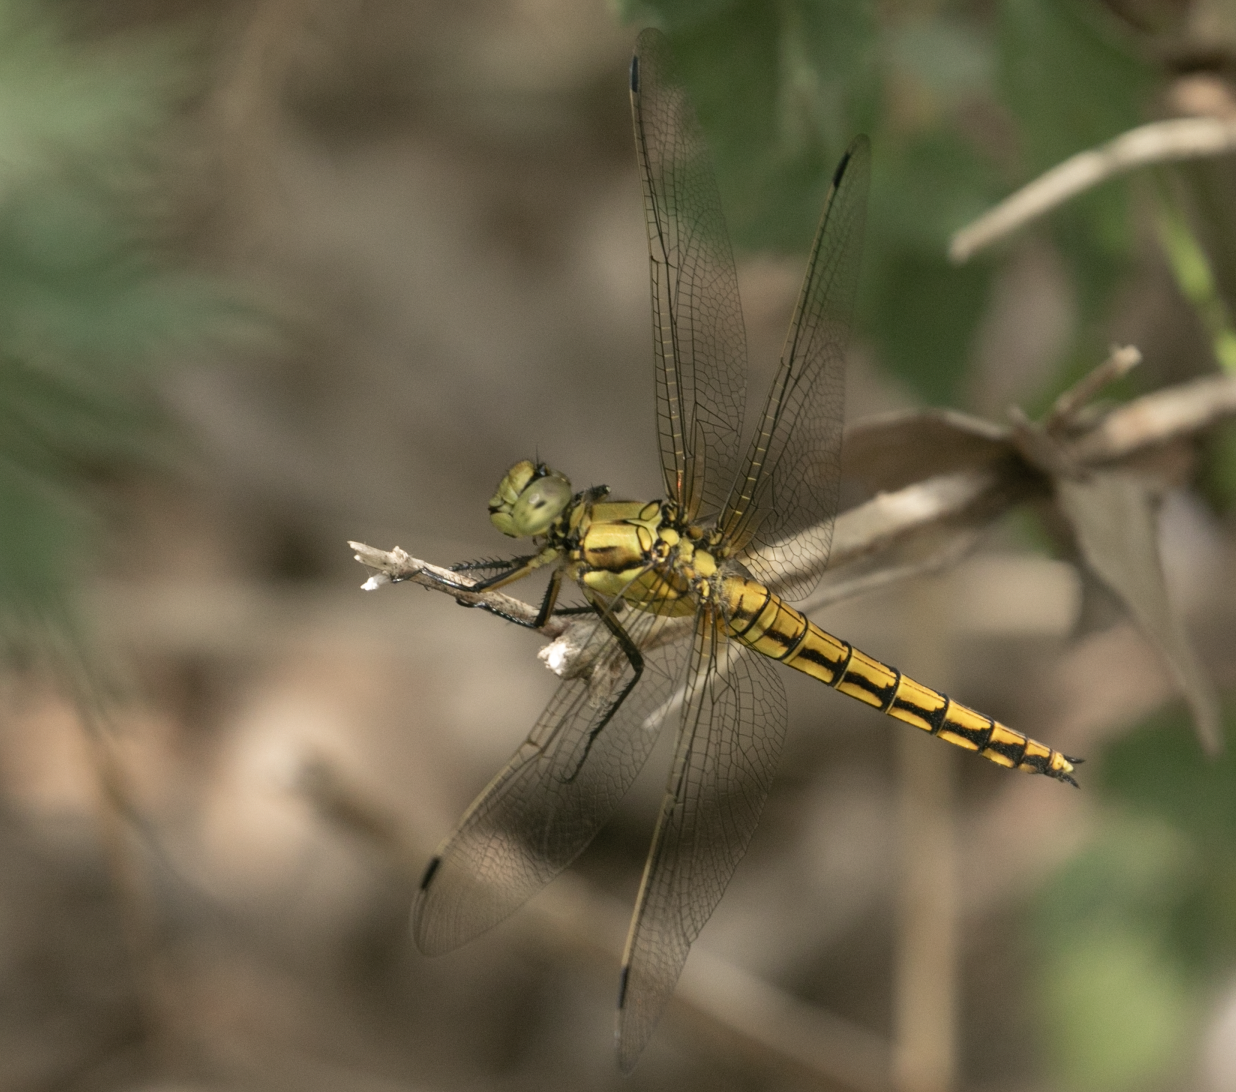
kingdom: Animalia
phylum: Arthropoda
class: Insecta
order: Odonata
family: Libellulidae
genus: Orthetrum
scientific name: Orthetrum cancellatum
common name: Black-tailed skimmer
